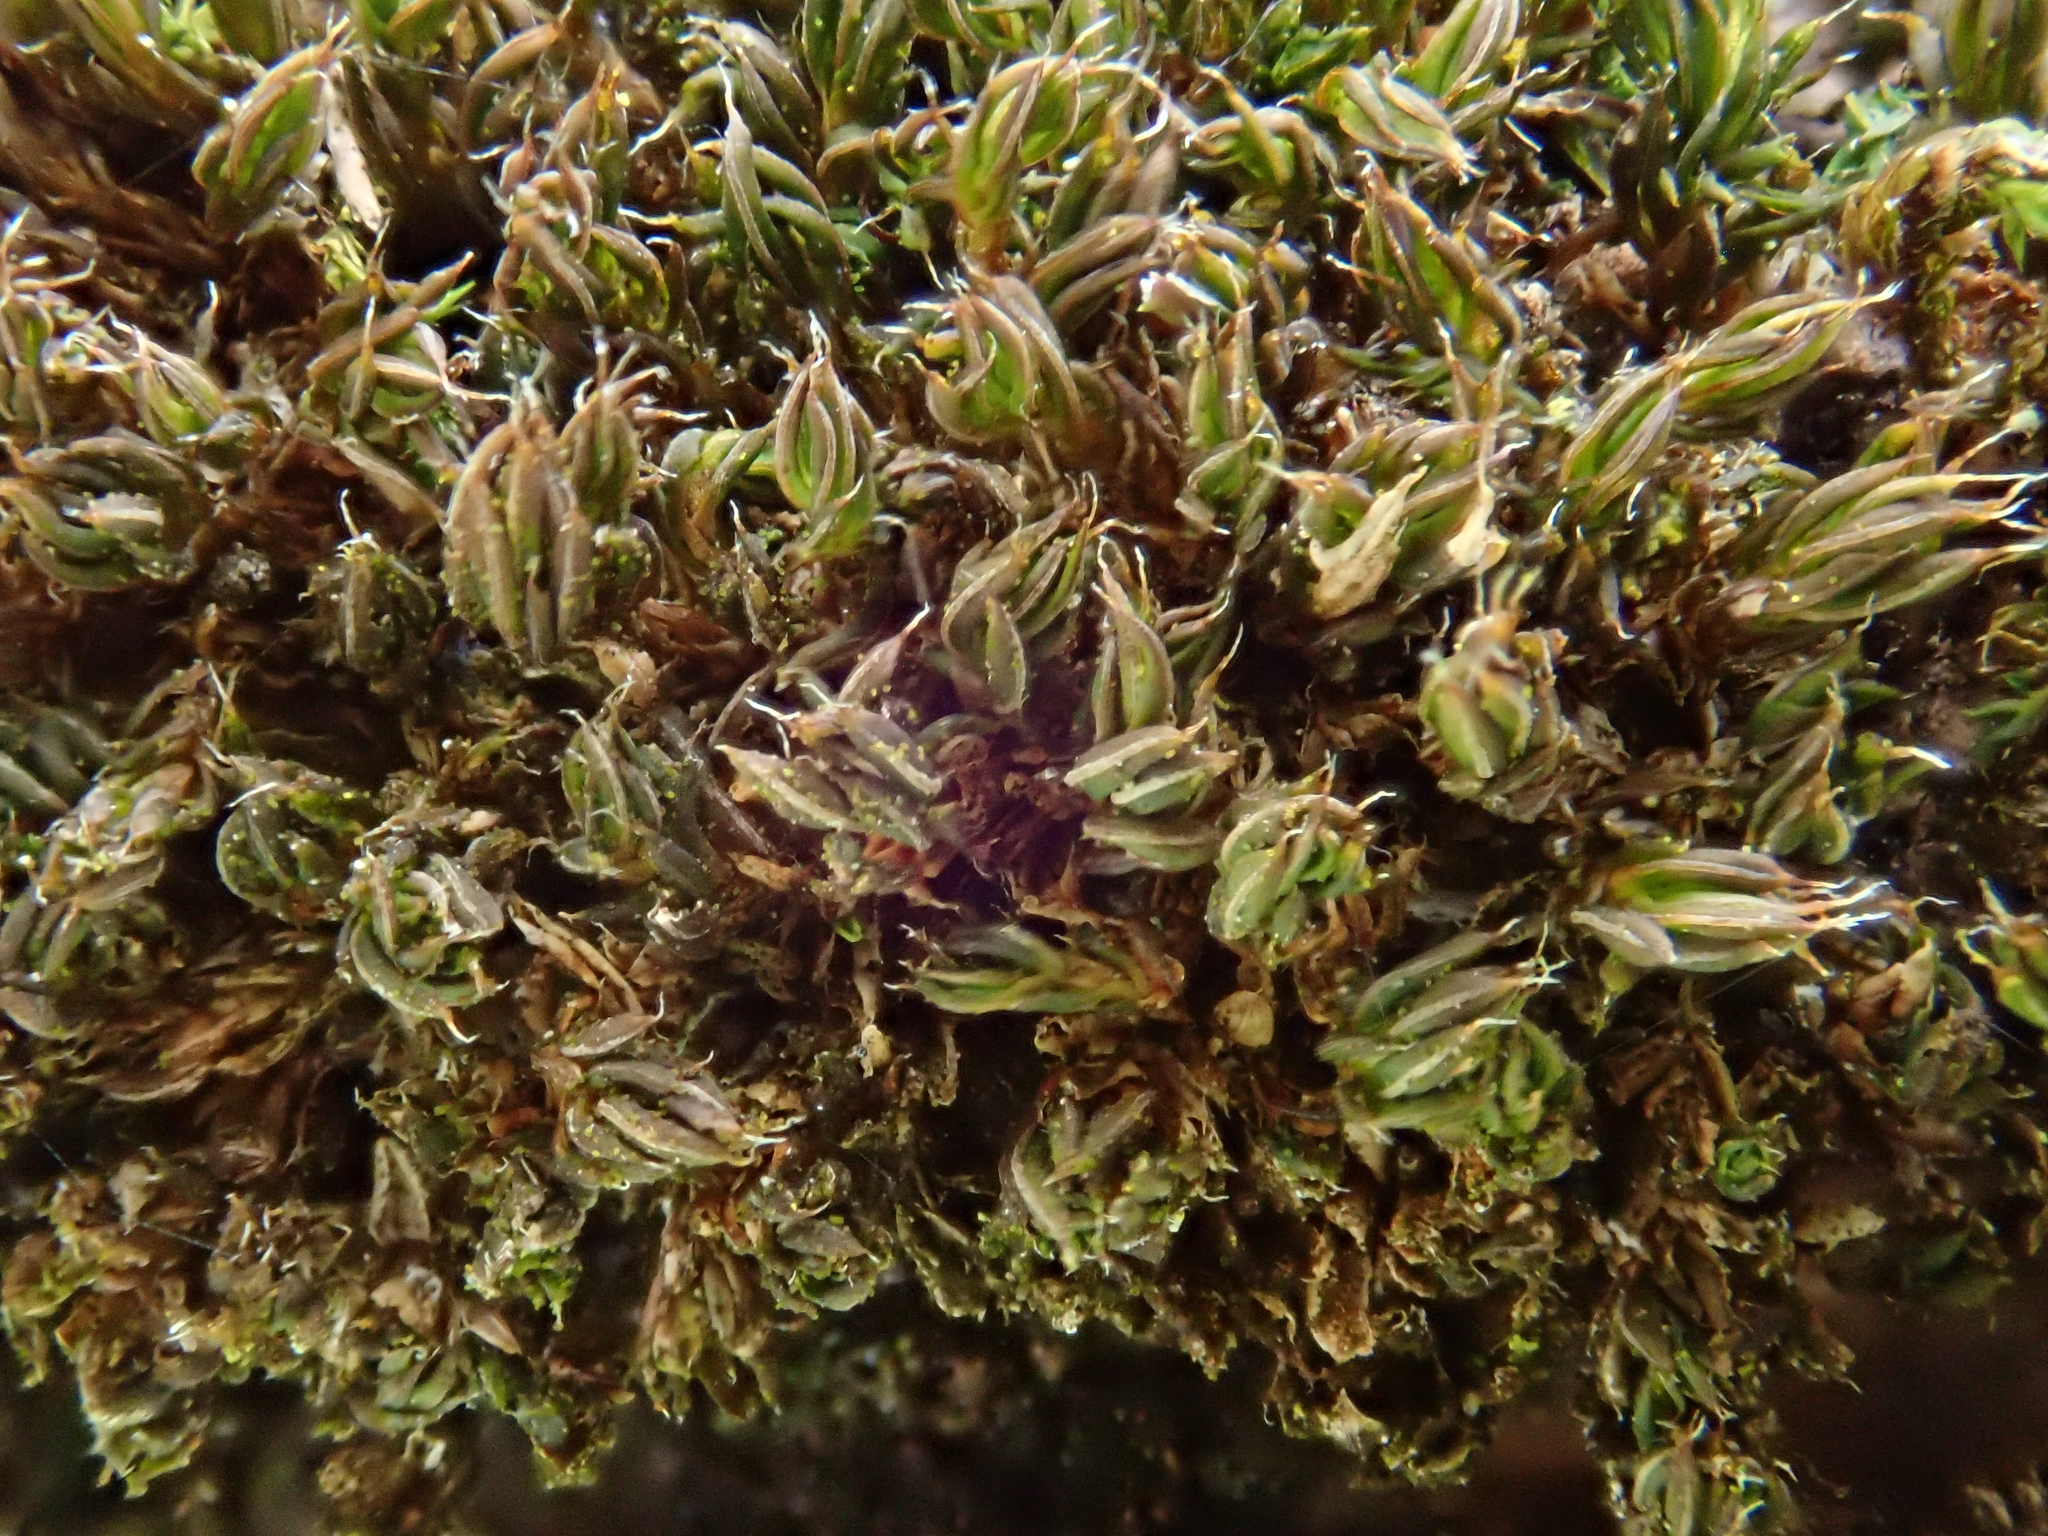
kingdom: Plantae
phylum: Bryophyta
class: Bryopsida
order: Pottiales
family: Pottiaceae
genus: Syntrichia
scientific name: Syntrichia papillosa
